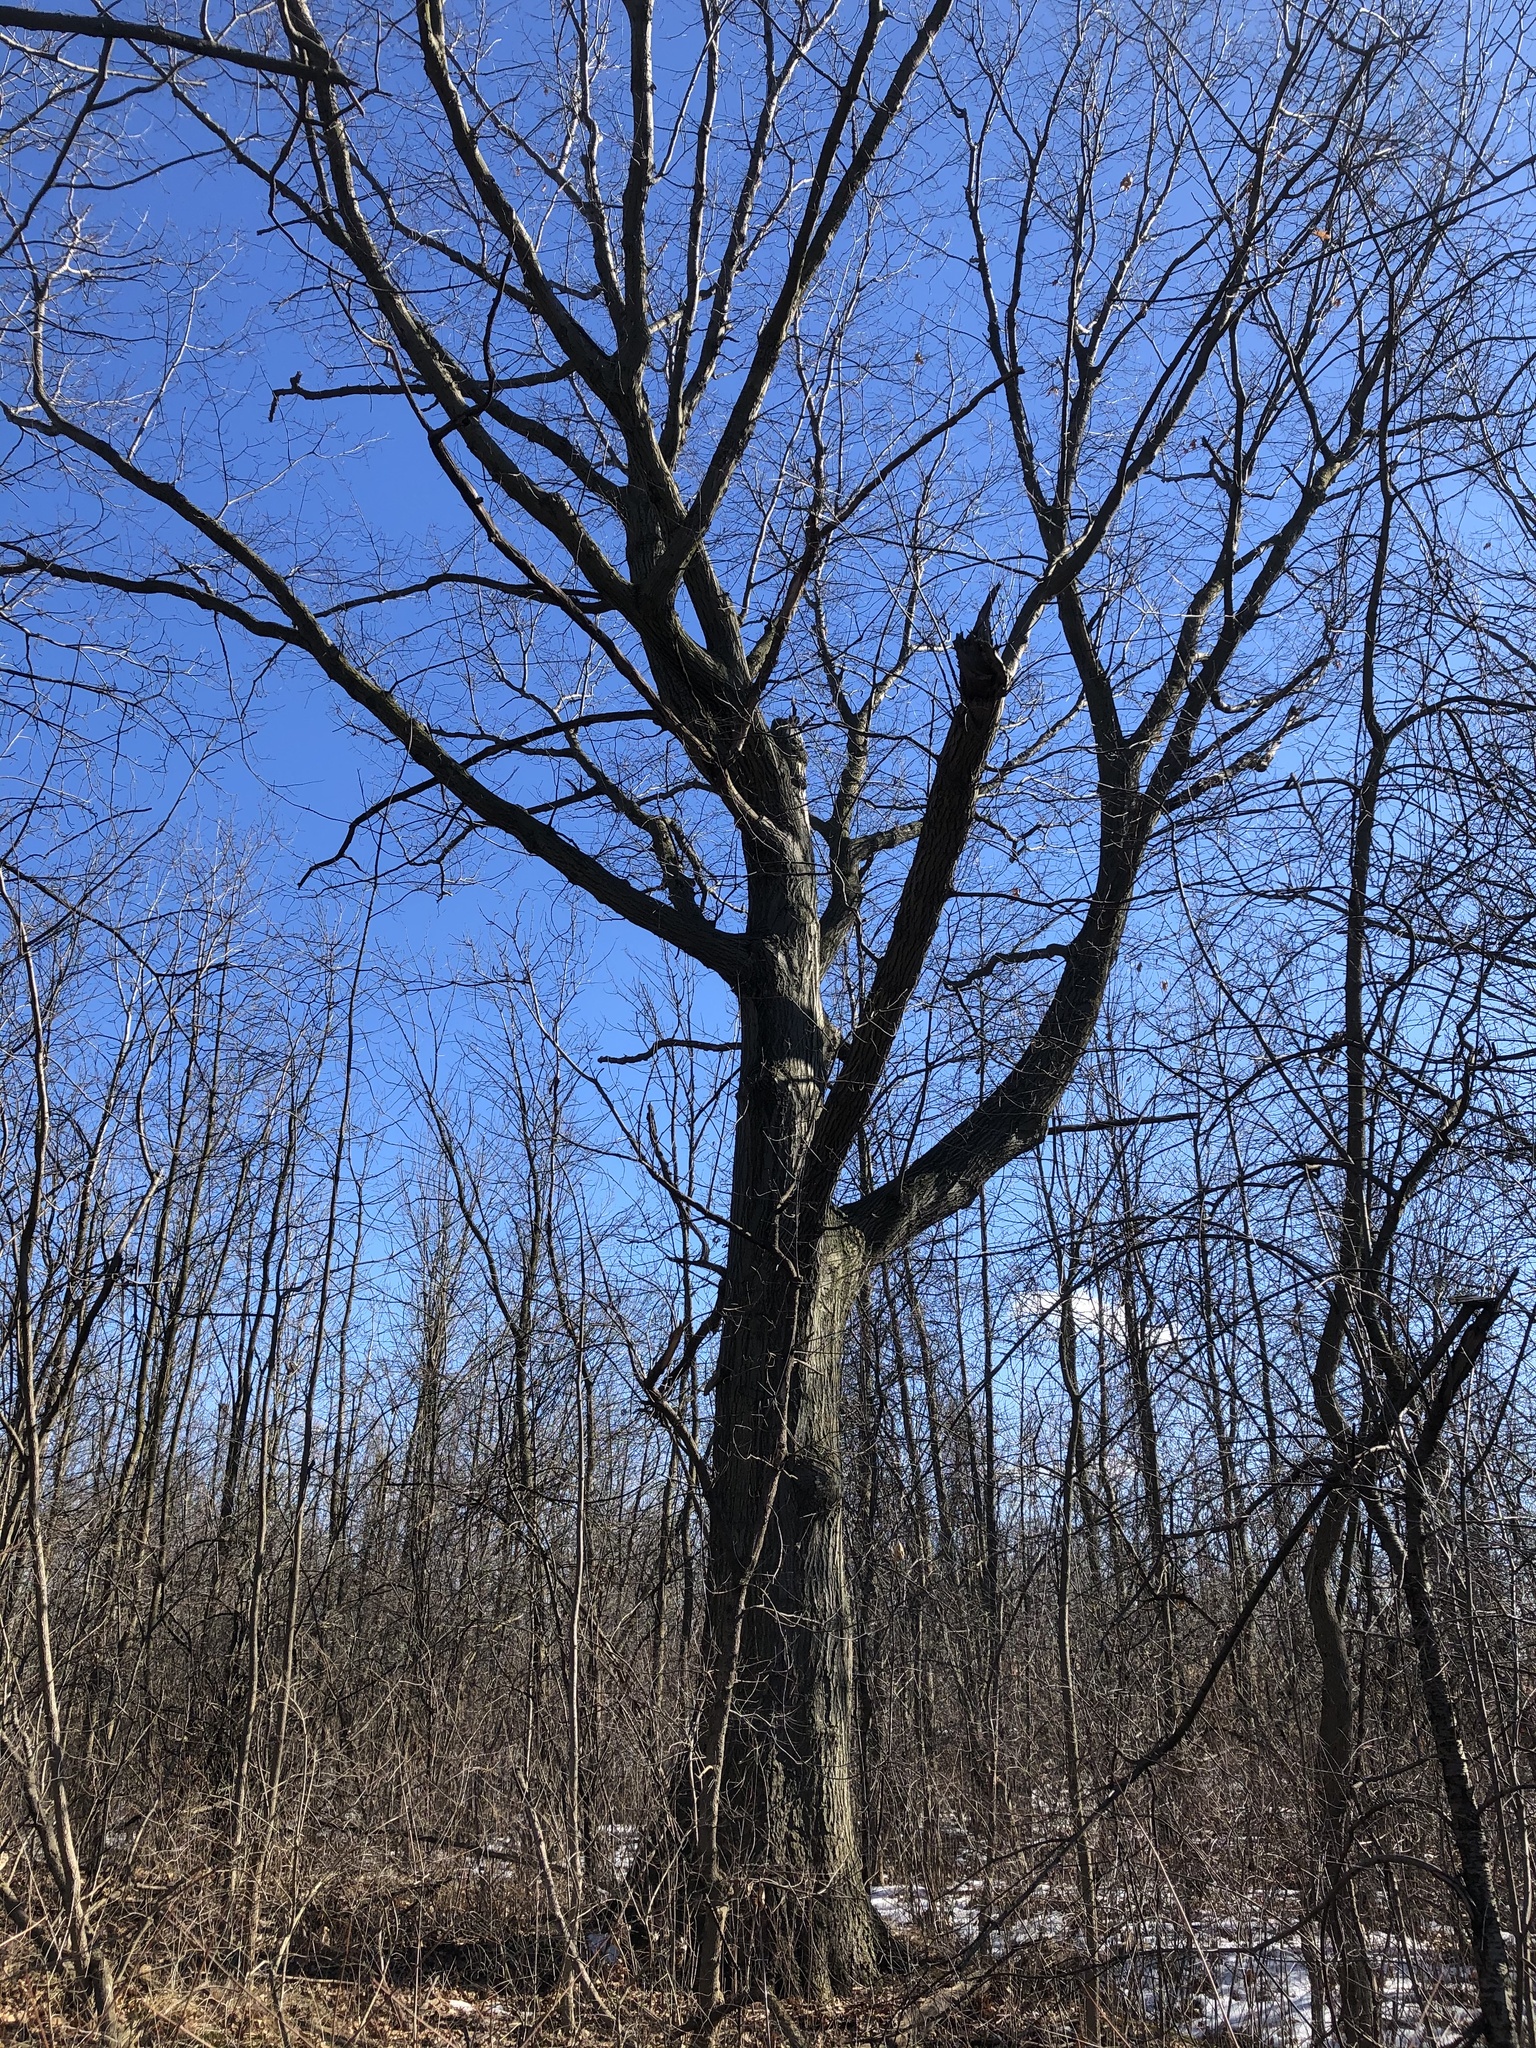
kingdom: Plantae
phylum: Tracheophyta
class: Magnoliopsida
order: Fagales
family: Fagaceae
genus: Quercus
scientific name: Quercus rubra
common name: Red oak
